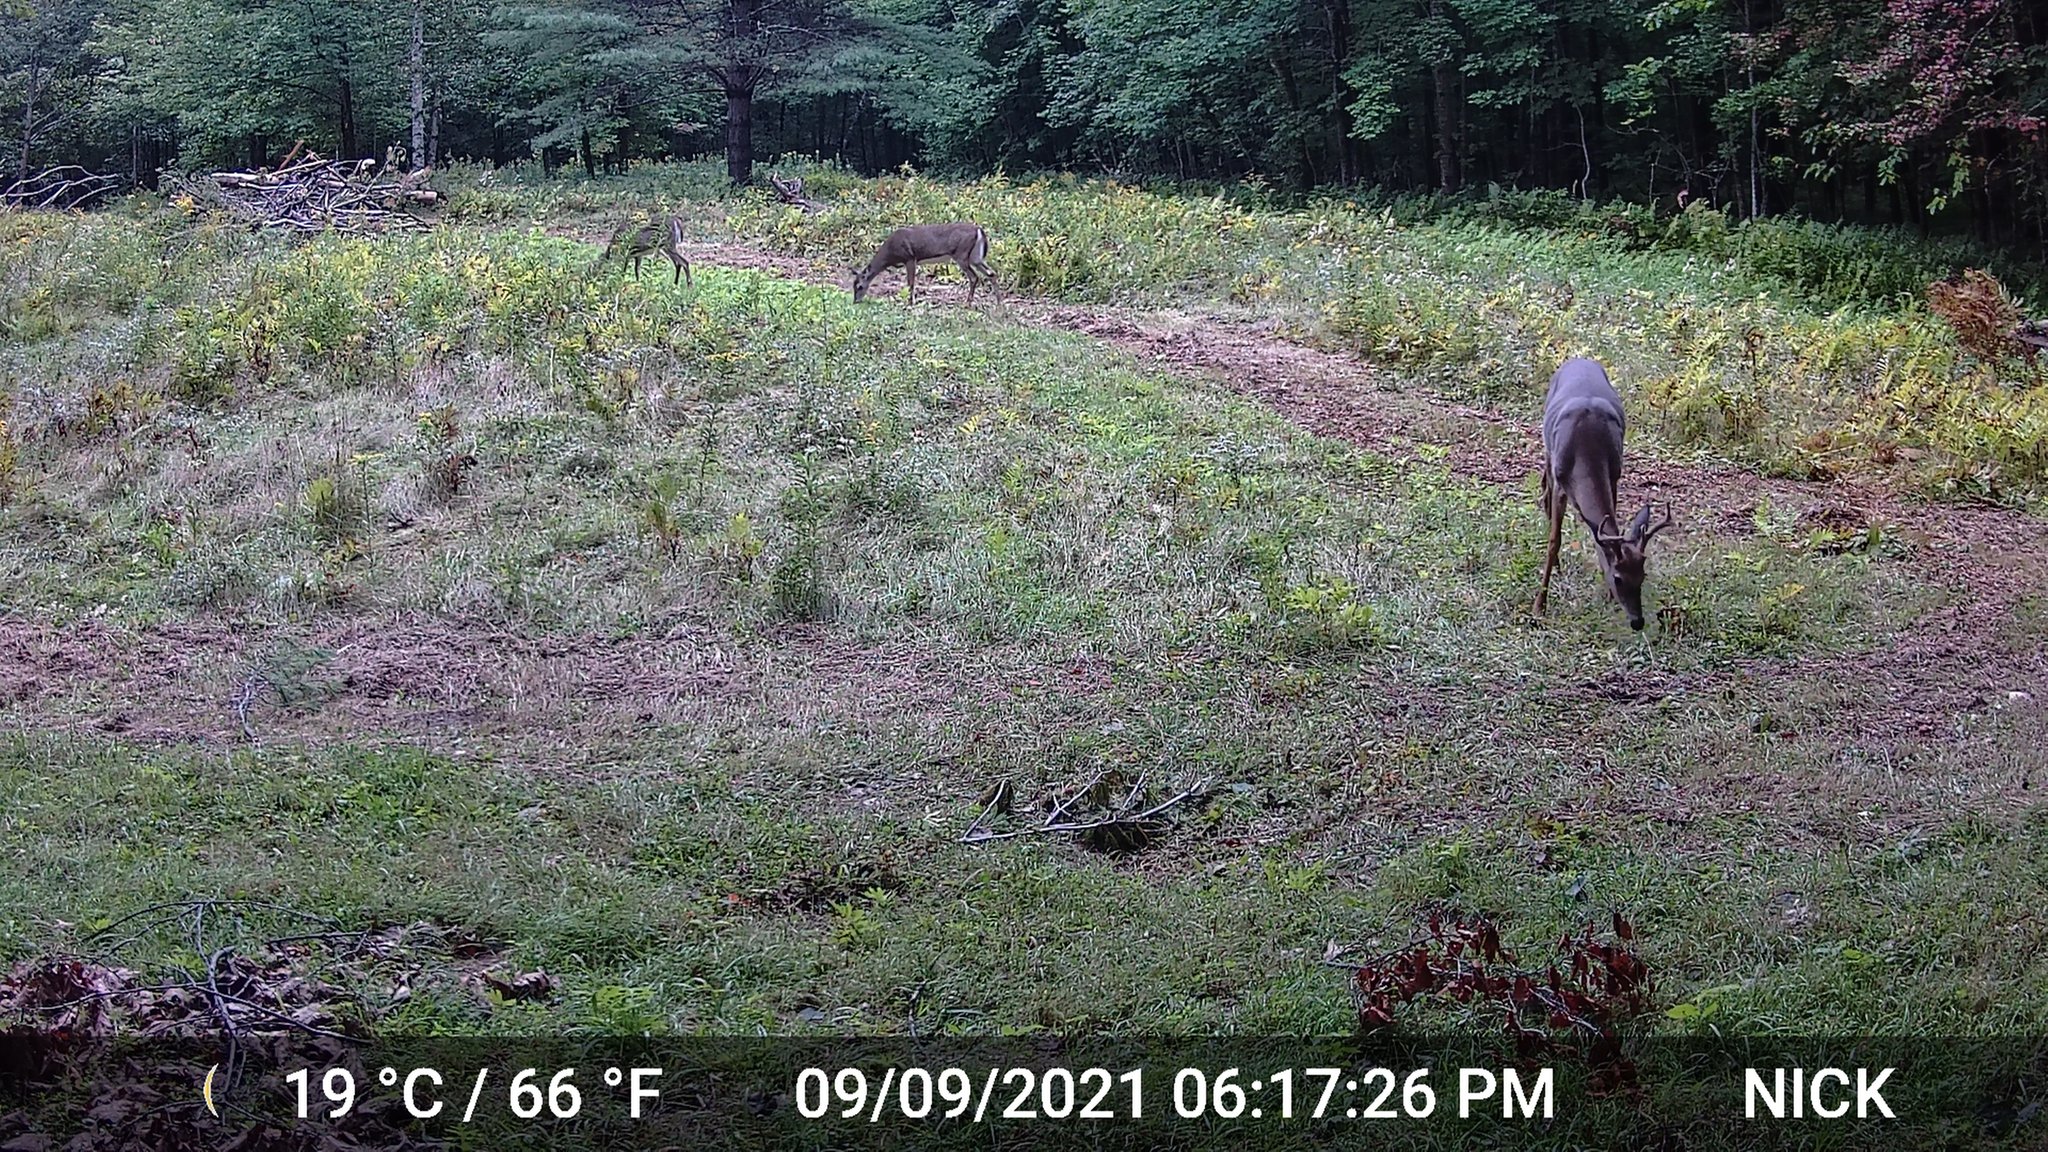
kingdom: Animalia
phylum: Chordata
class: Mammalia
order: Artiodactyla
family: Cervidae
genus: Odocoileus
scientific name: Odocoileus virginianus
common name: White-tailed deer
